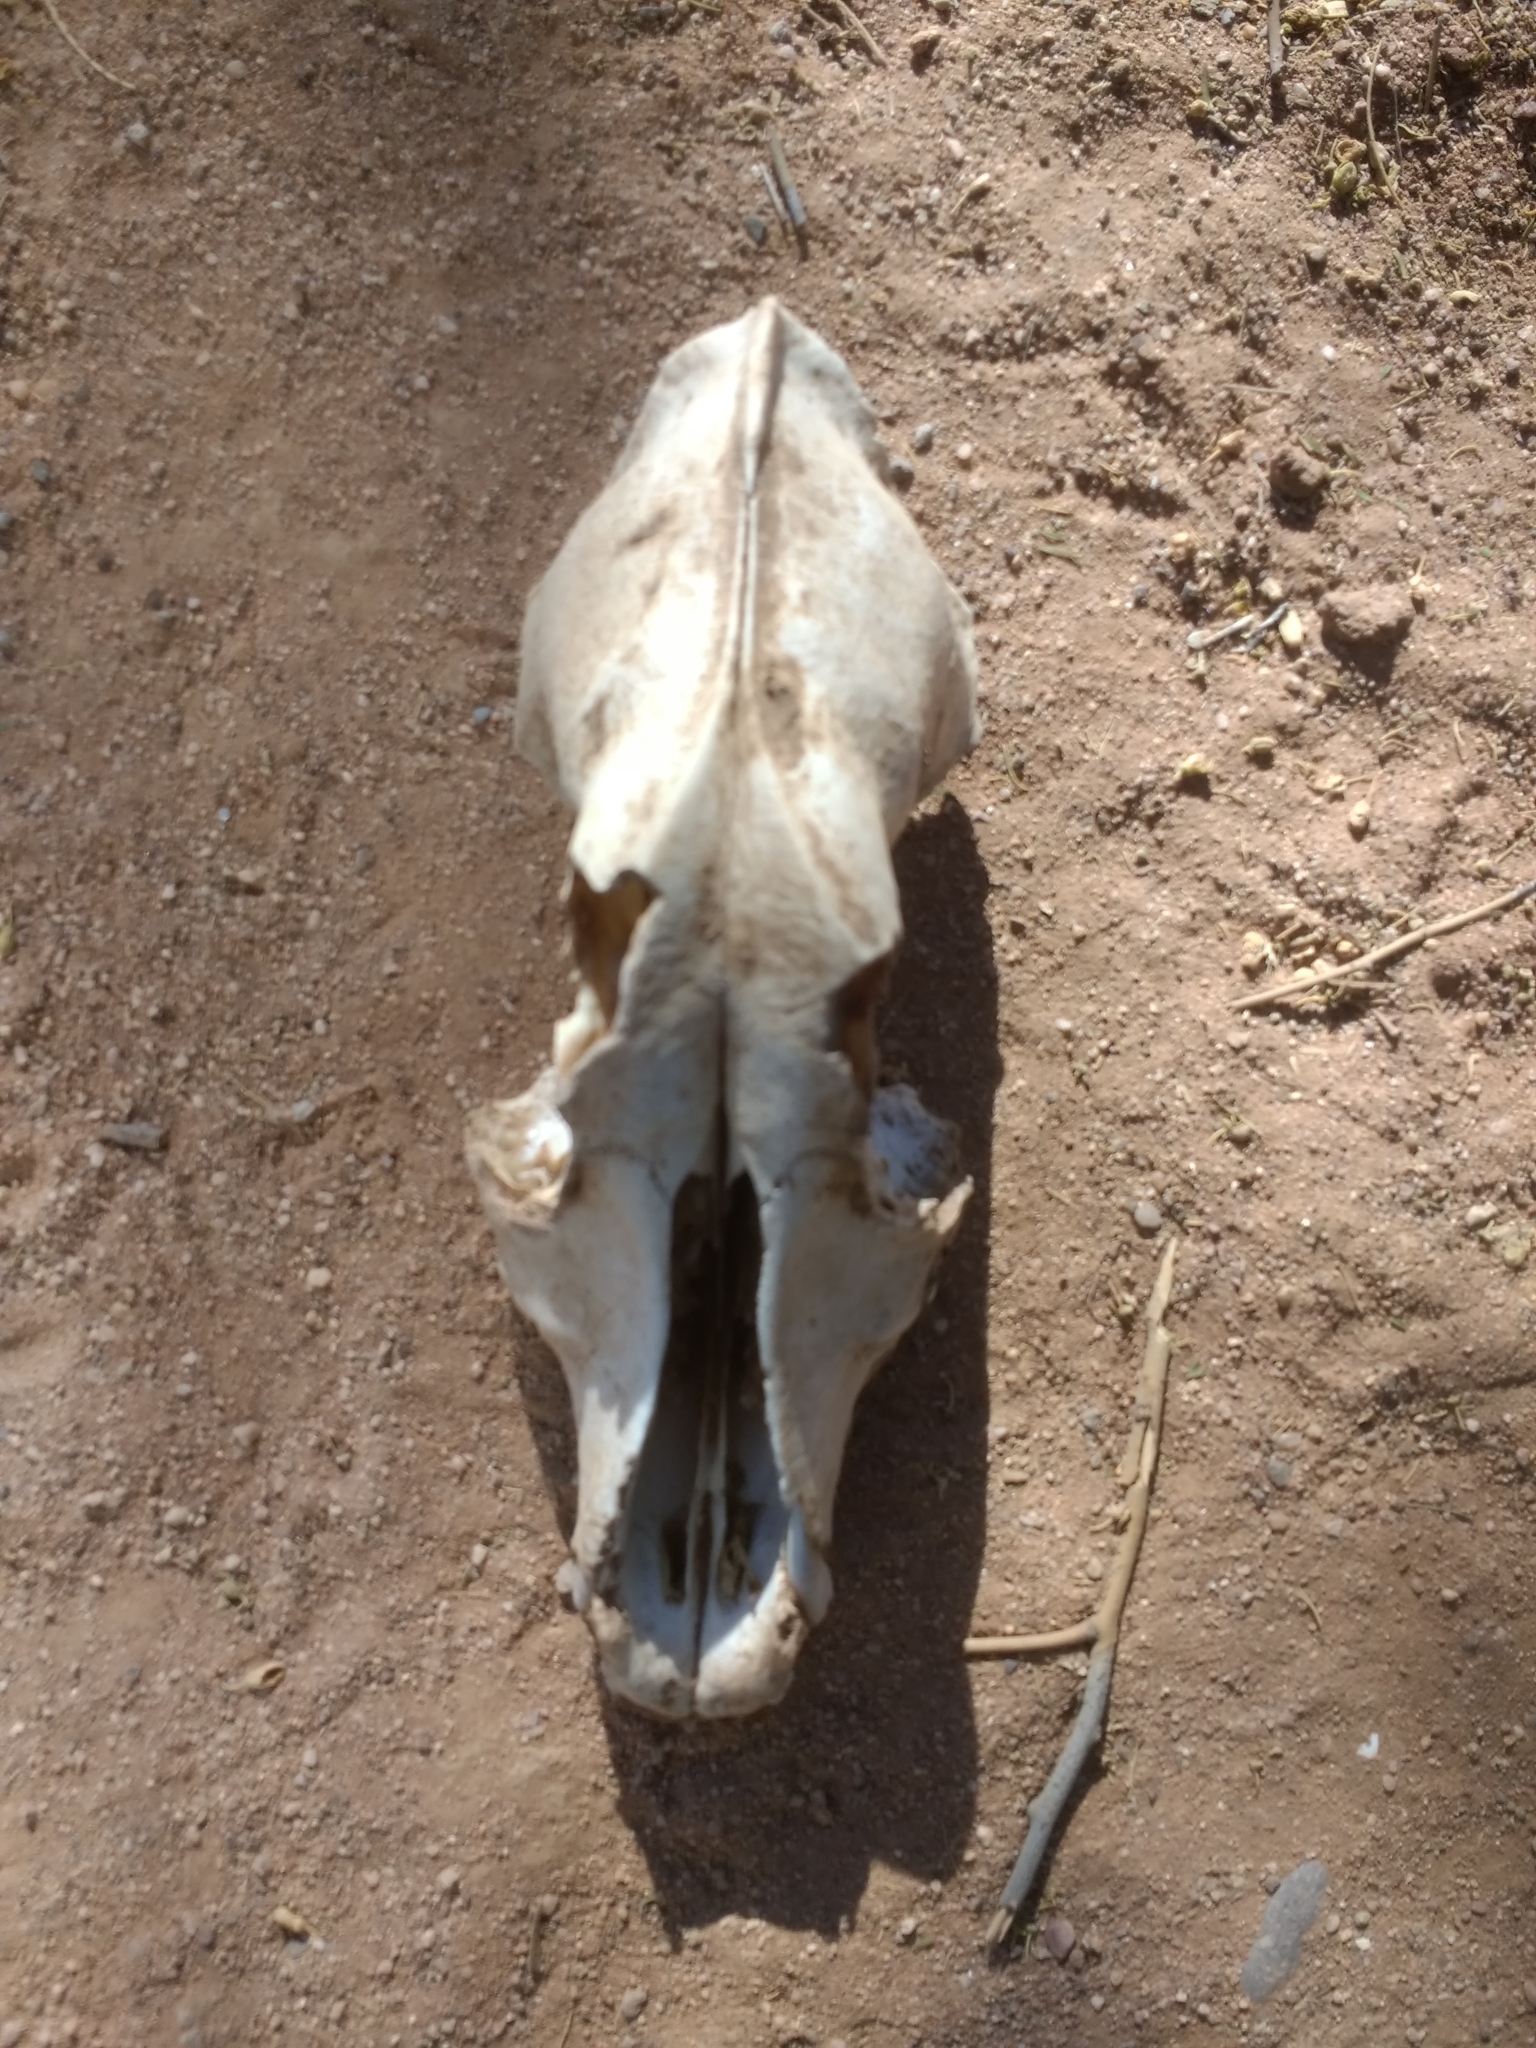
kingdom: Animalia
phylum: Chordata
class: Mammalia
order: Carnivora
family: Canidae
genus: Canis
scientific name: Canis lupus
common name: Gray wolf
